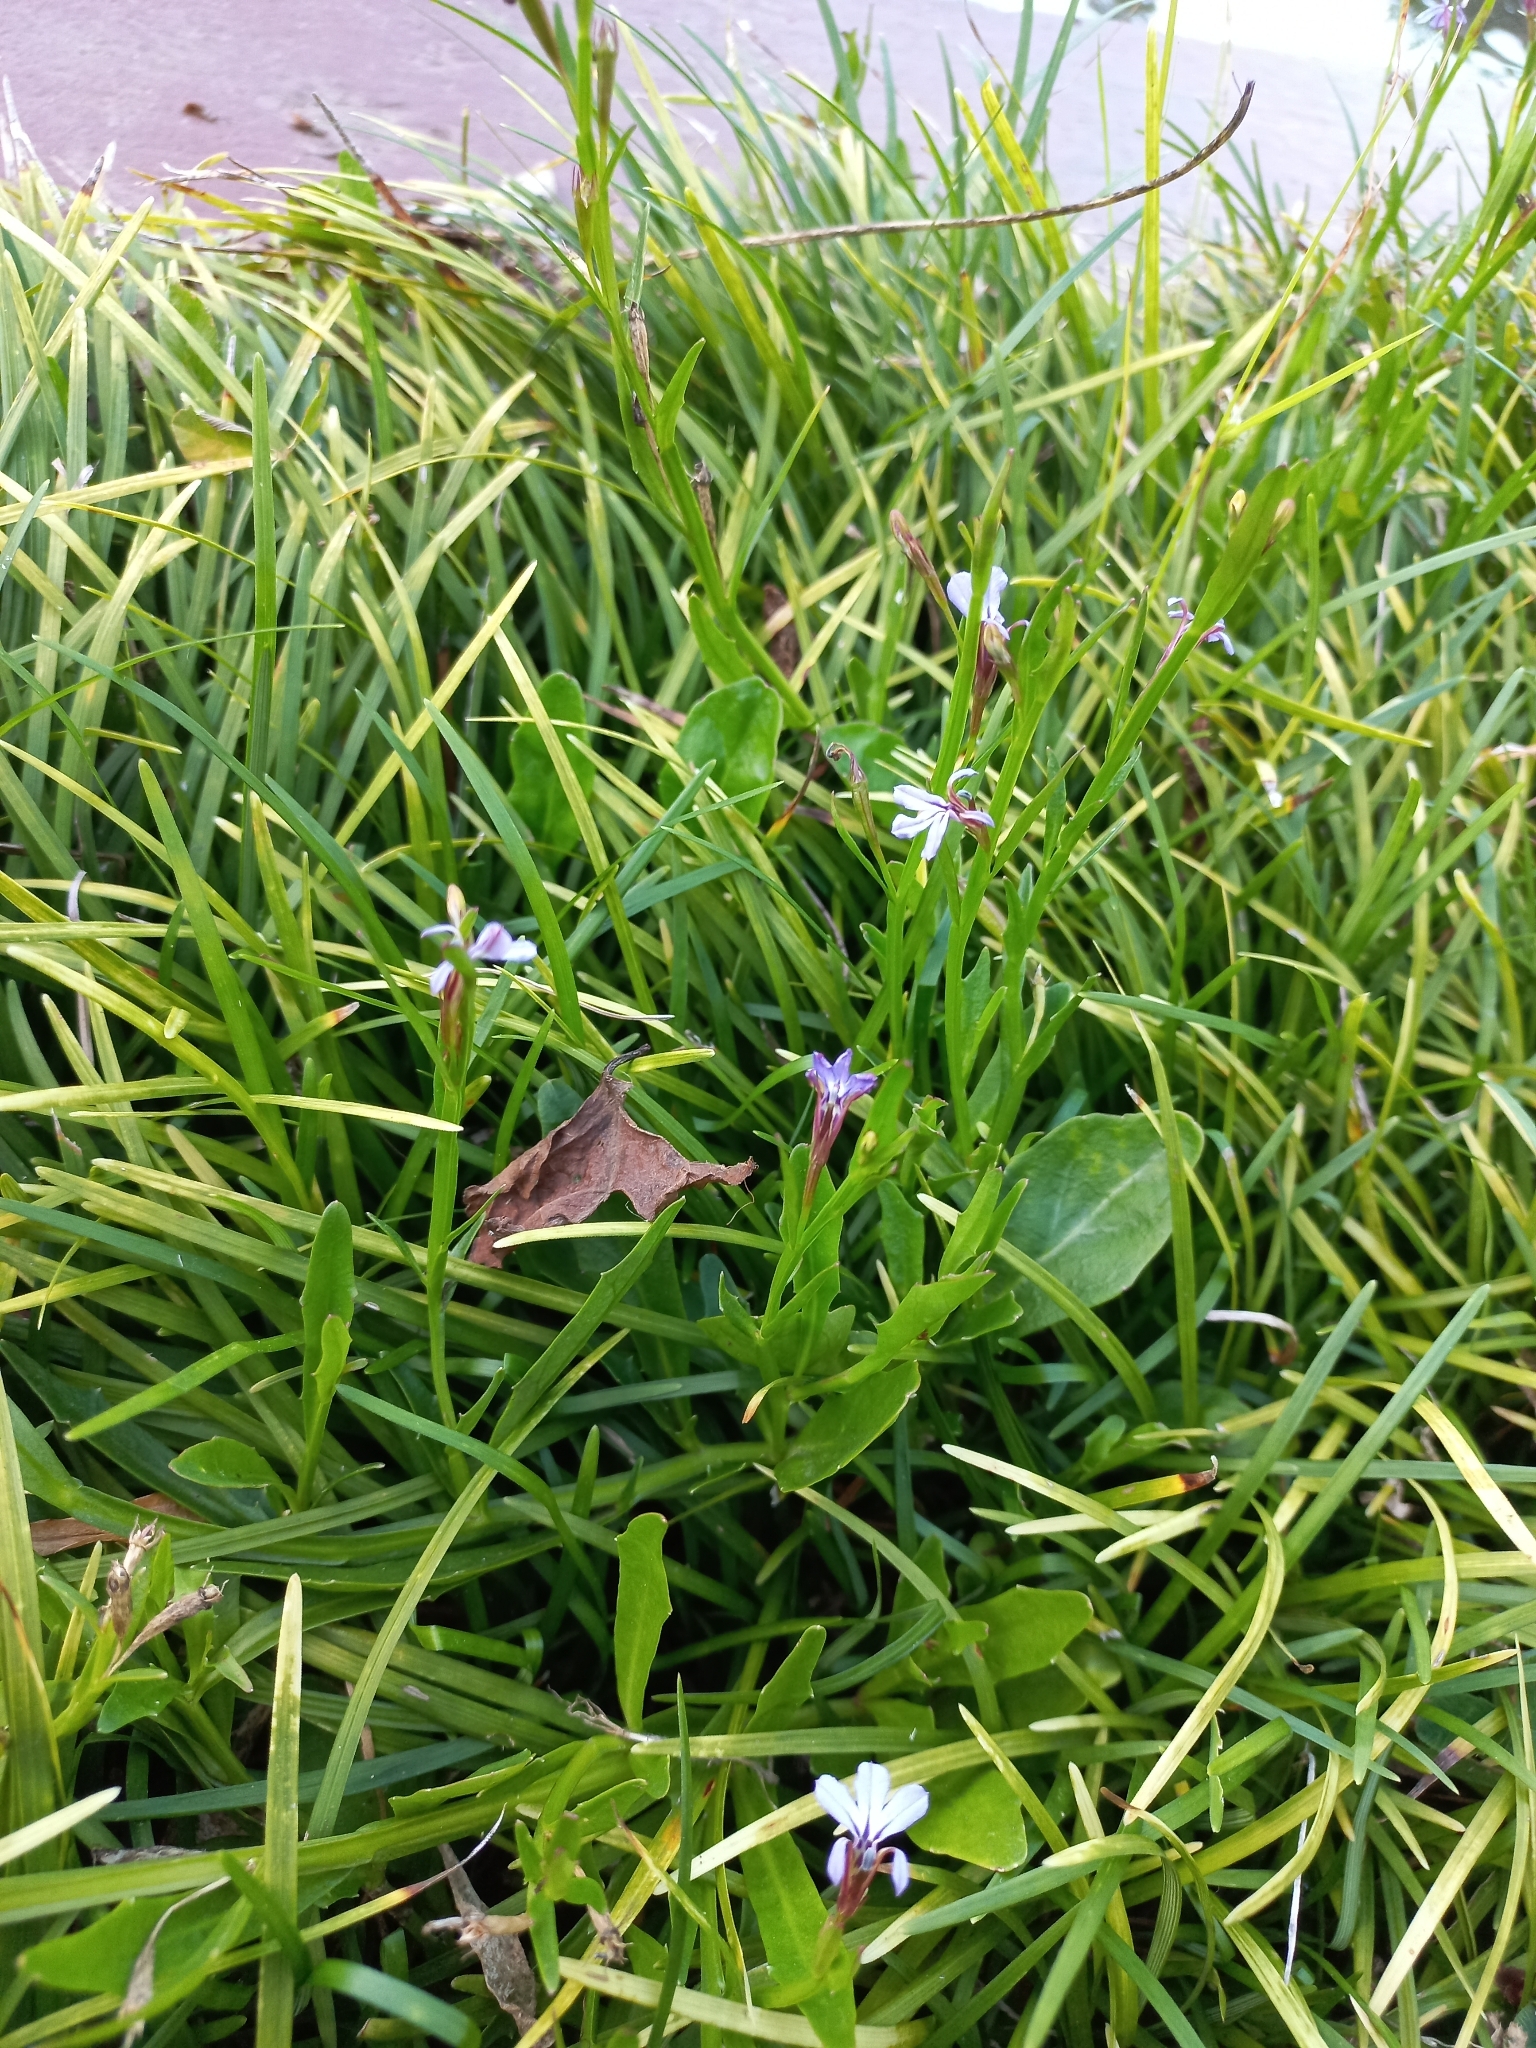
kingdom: Plantae
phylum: Tracheophyta
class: Magnoliopsida
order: Asterales
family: Campanulaceae
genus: Lobelia
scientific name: Lobelia anceps
